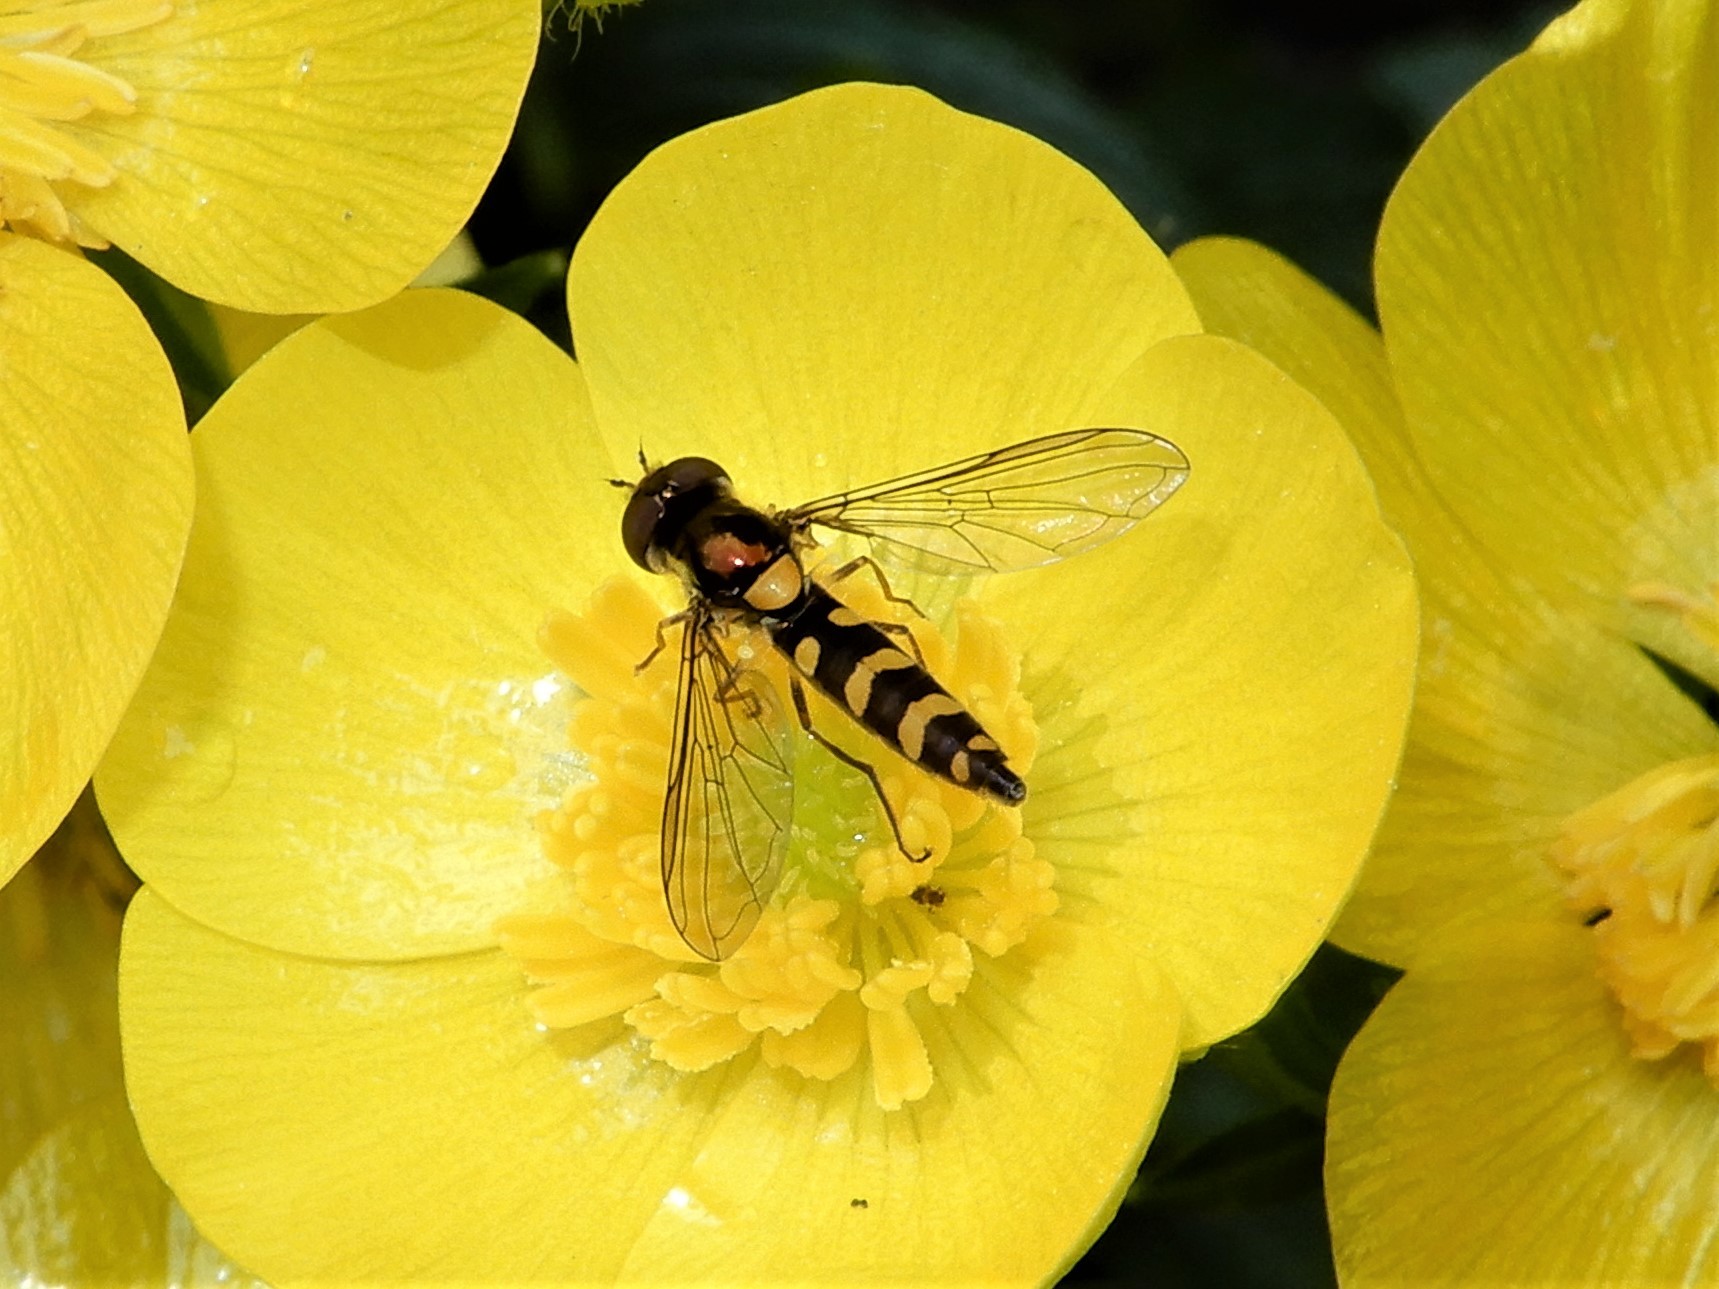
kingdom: Animalia
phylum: Arthropoda
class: Insecta
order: Diptera
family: Syrphidae
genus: Allograpta
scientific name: Allograpta ropala
